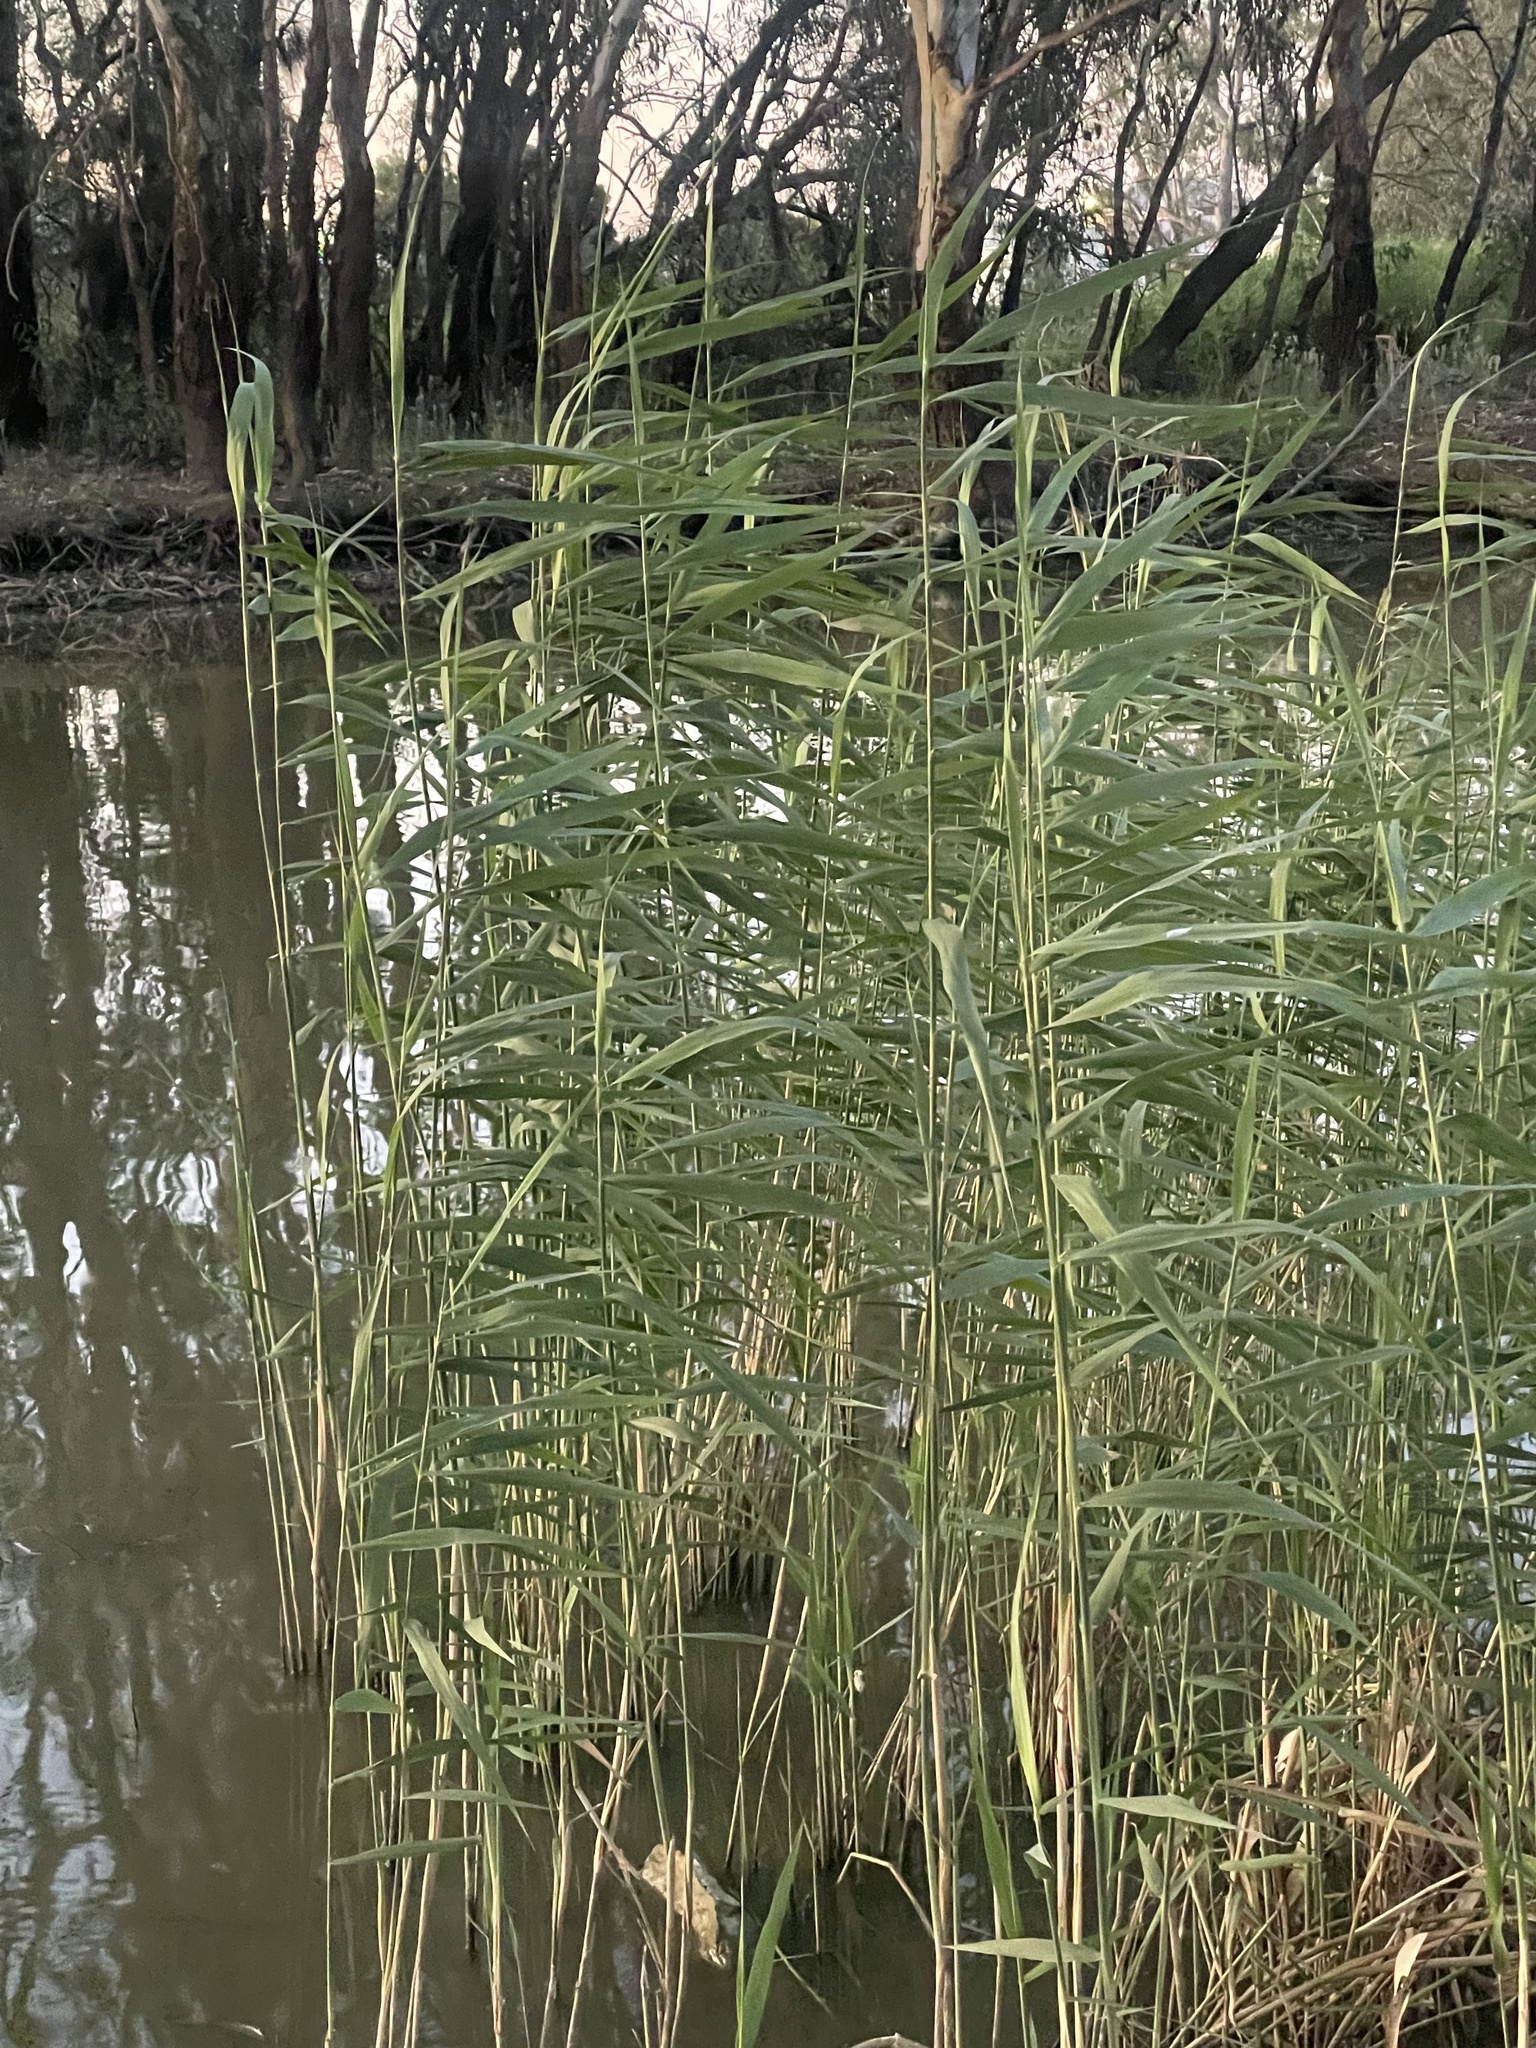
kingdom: Plantae
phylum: Tracheophyta
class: Liliopsida
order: Poales
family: Poaceae
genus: Phragmites
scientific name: Phragmites australis
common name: Common reed
